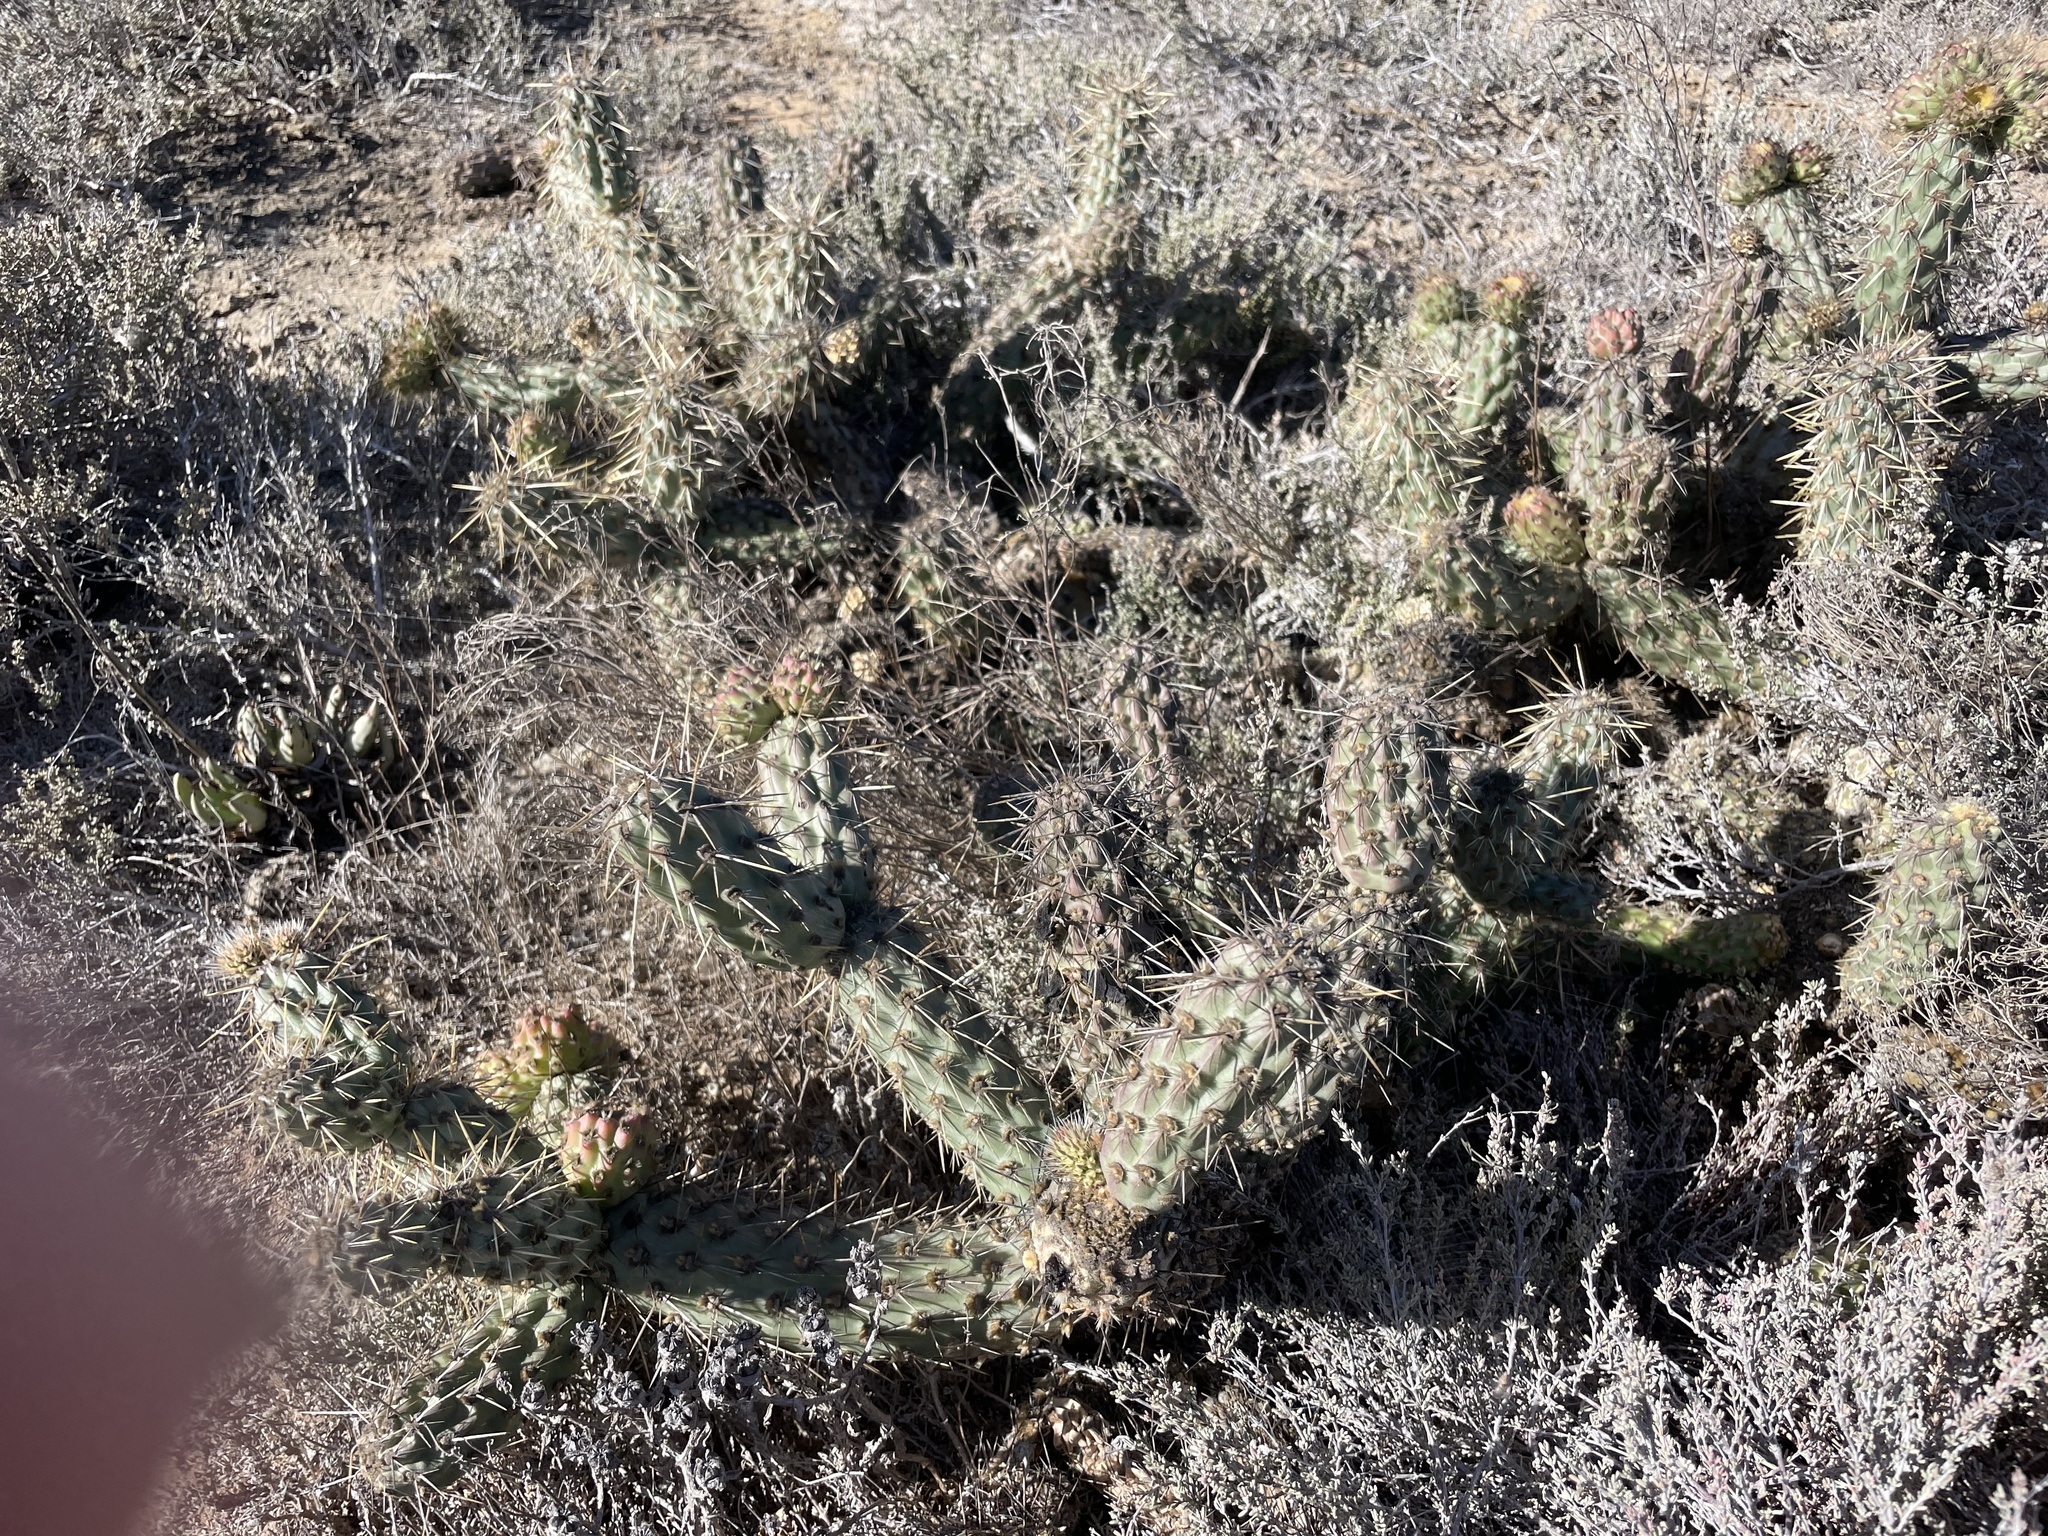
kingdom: Plantae
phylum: Tracheophyta
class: Magnoliopsida
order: Caryophyllales
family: Cactaceae
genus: Cylindropuntia
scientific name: Cylindropuntia californica
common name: Snake cholla
